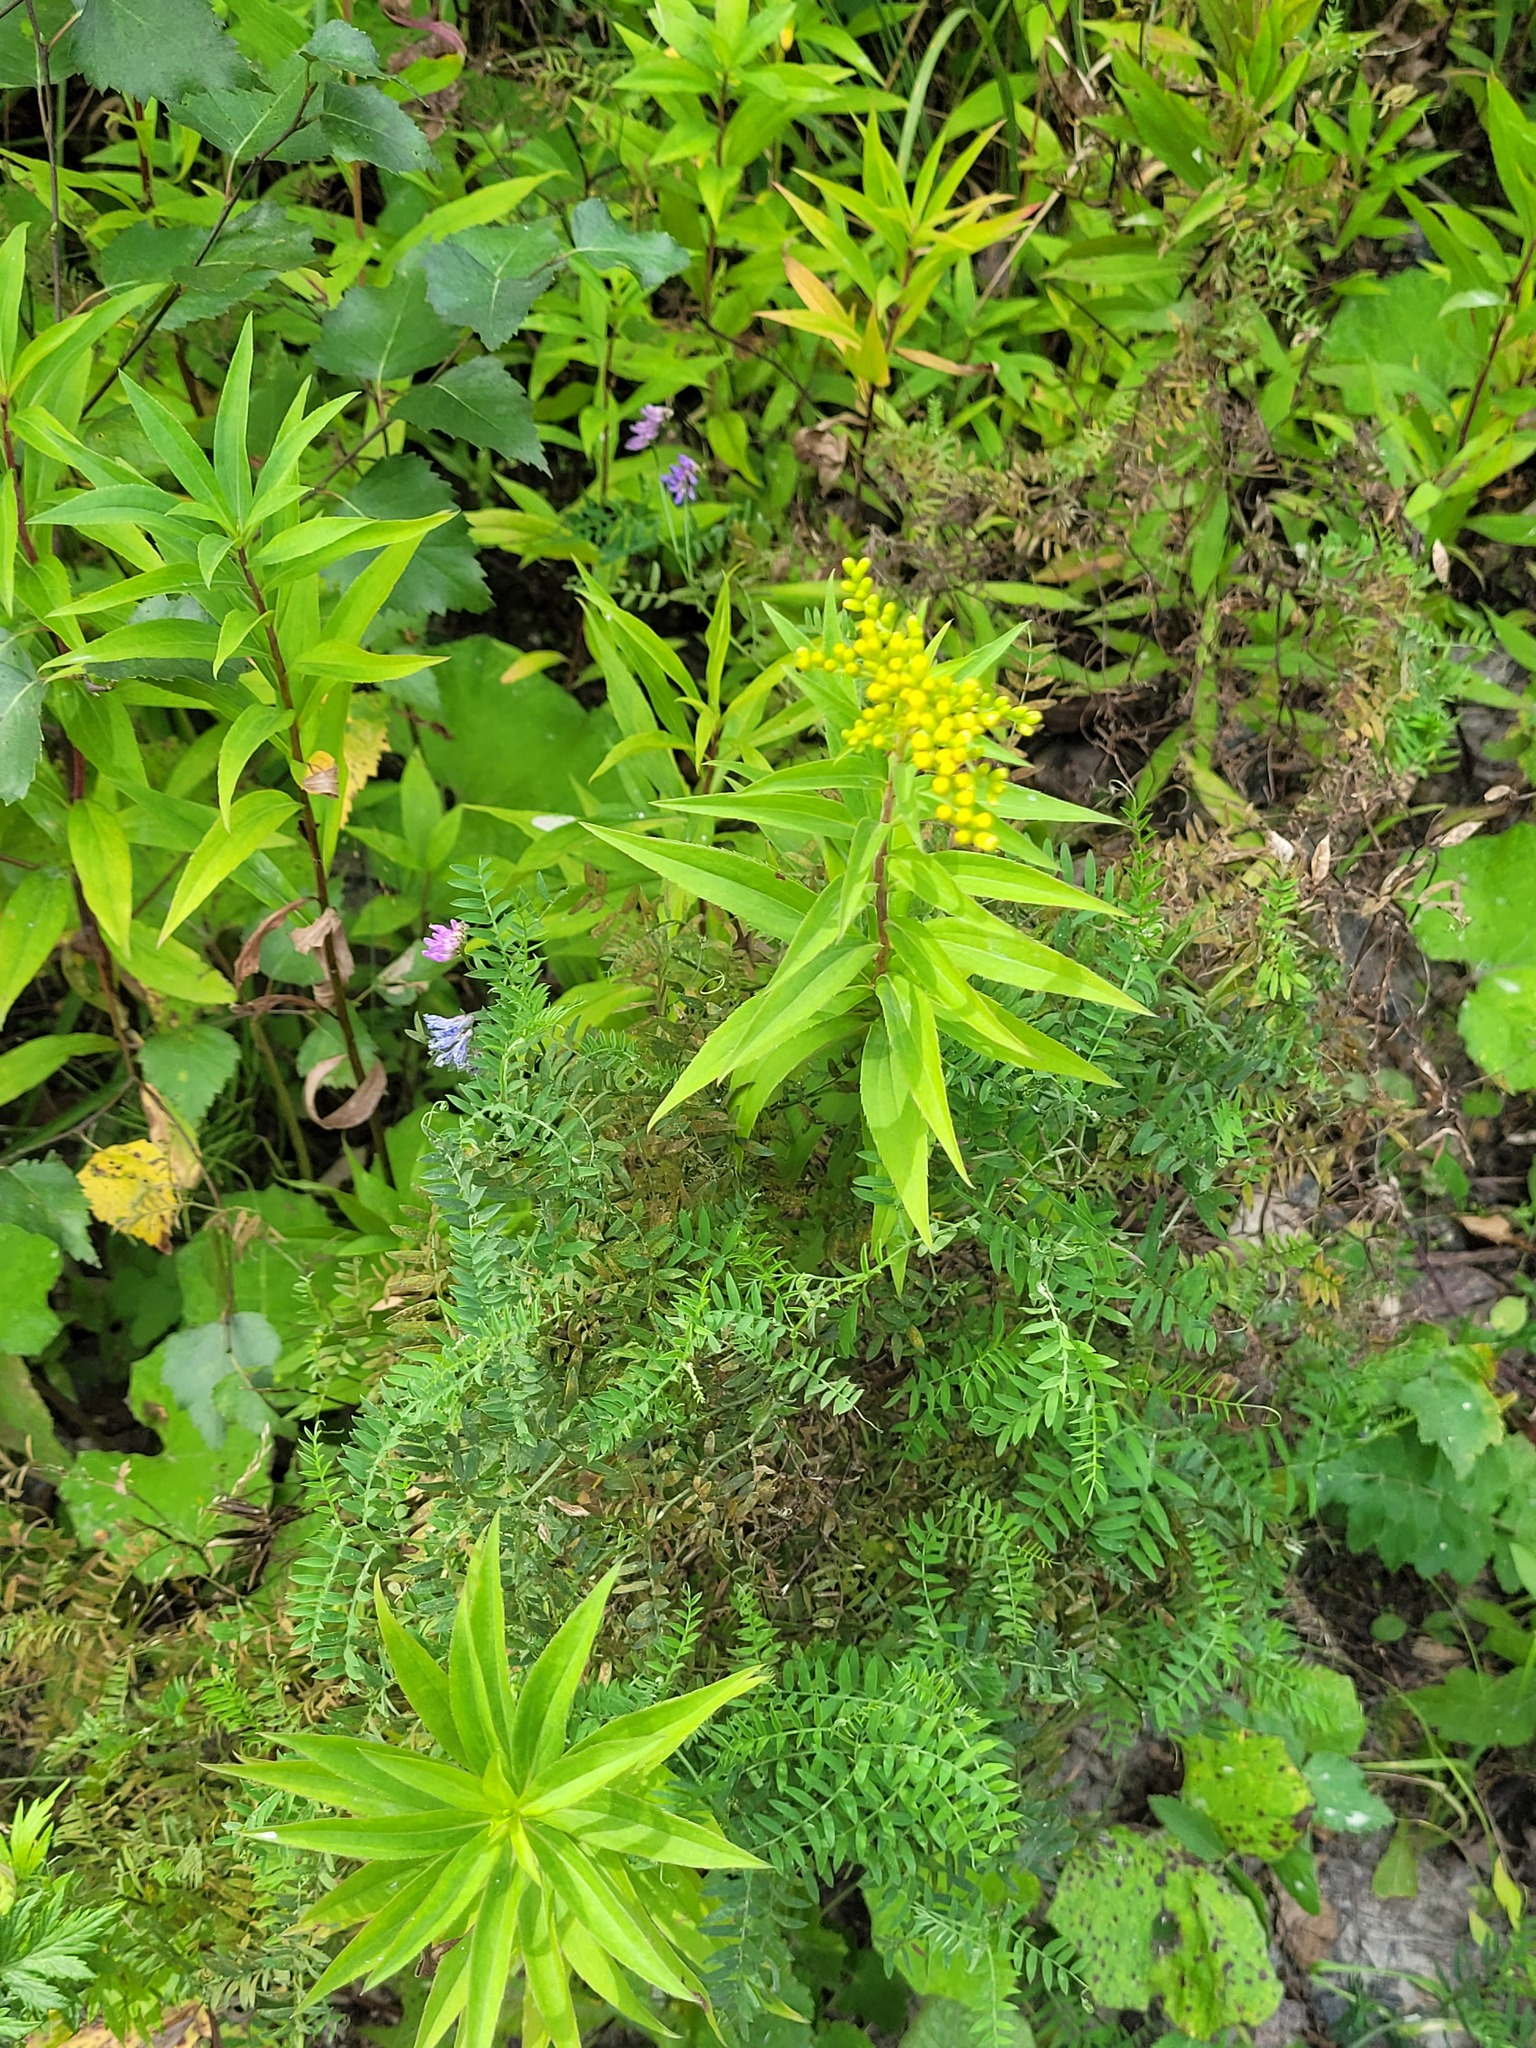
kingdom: Plantae
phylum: Tracheophyta
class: Magnoliopsida
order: Fabales
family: Fabaceae
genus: Vicia
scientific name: Vicia cracca
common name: Bird vetch
